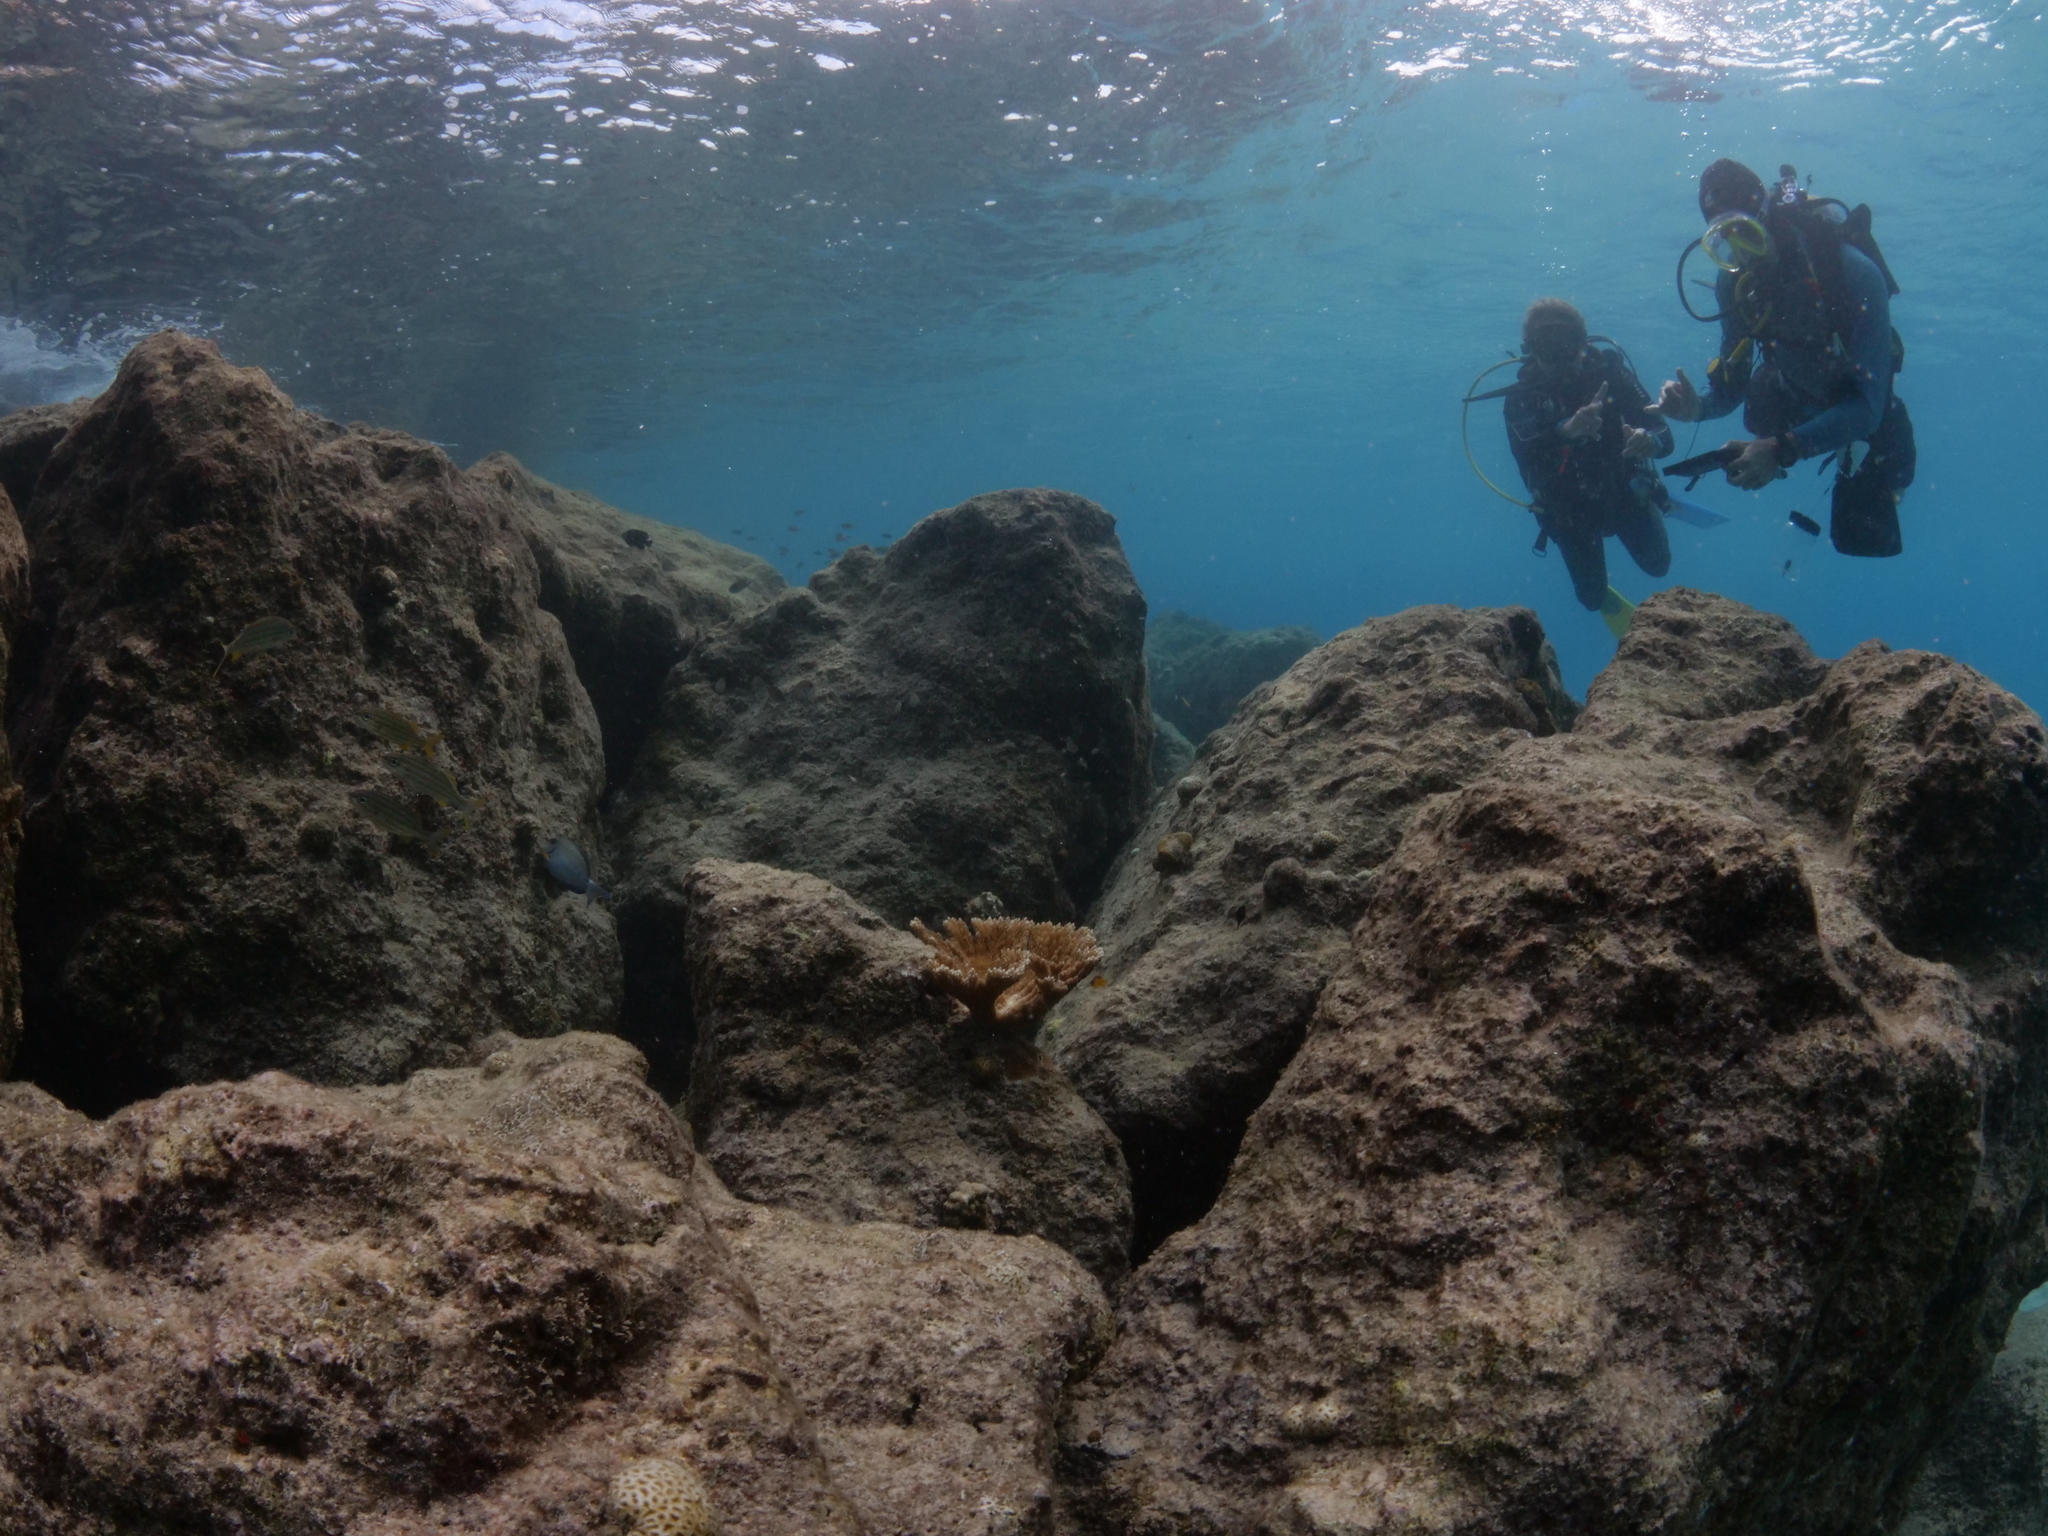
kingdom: Animalia
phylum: Cnidaria
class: Anthozoa
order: Scleractinia
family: Acroporidae
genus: Acropora
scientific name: Acropora palmata
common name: Elkhorn coral
